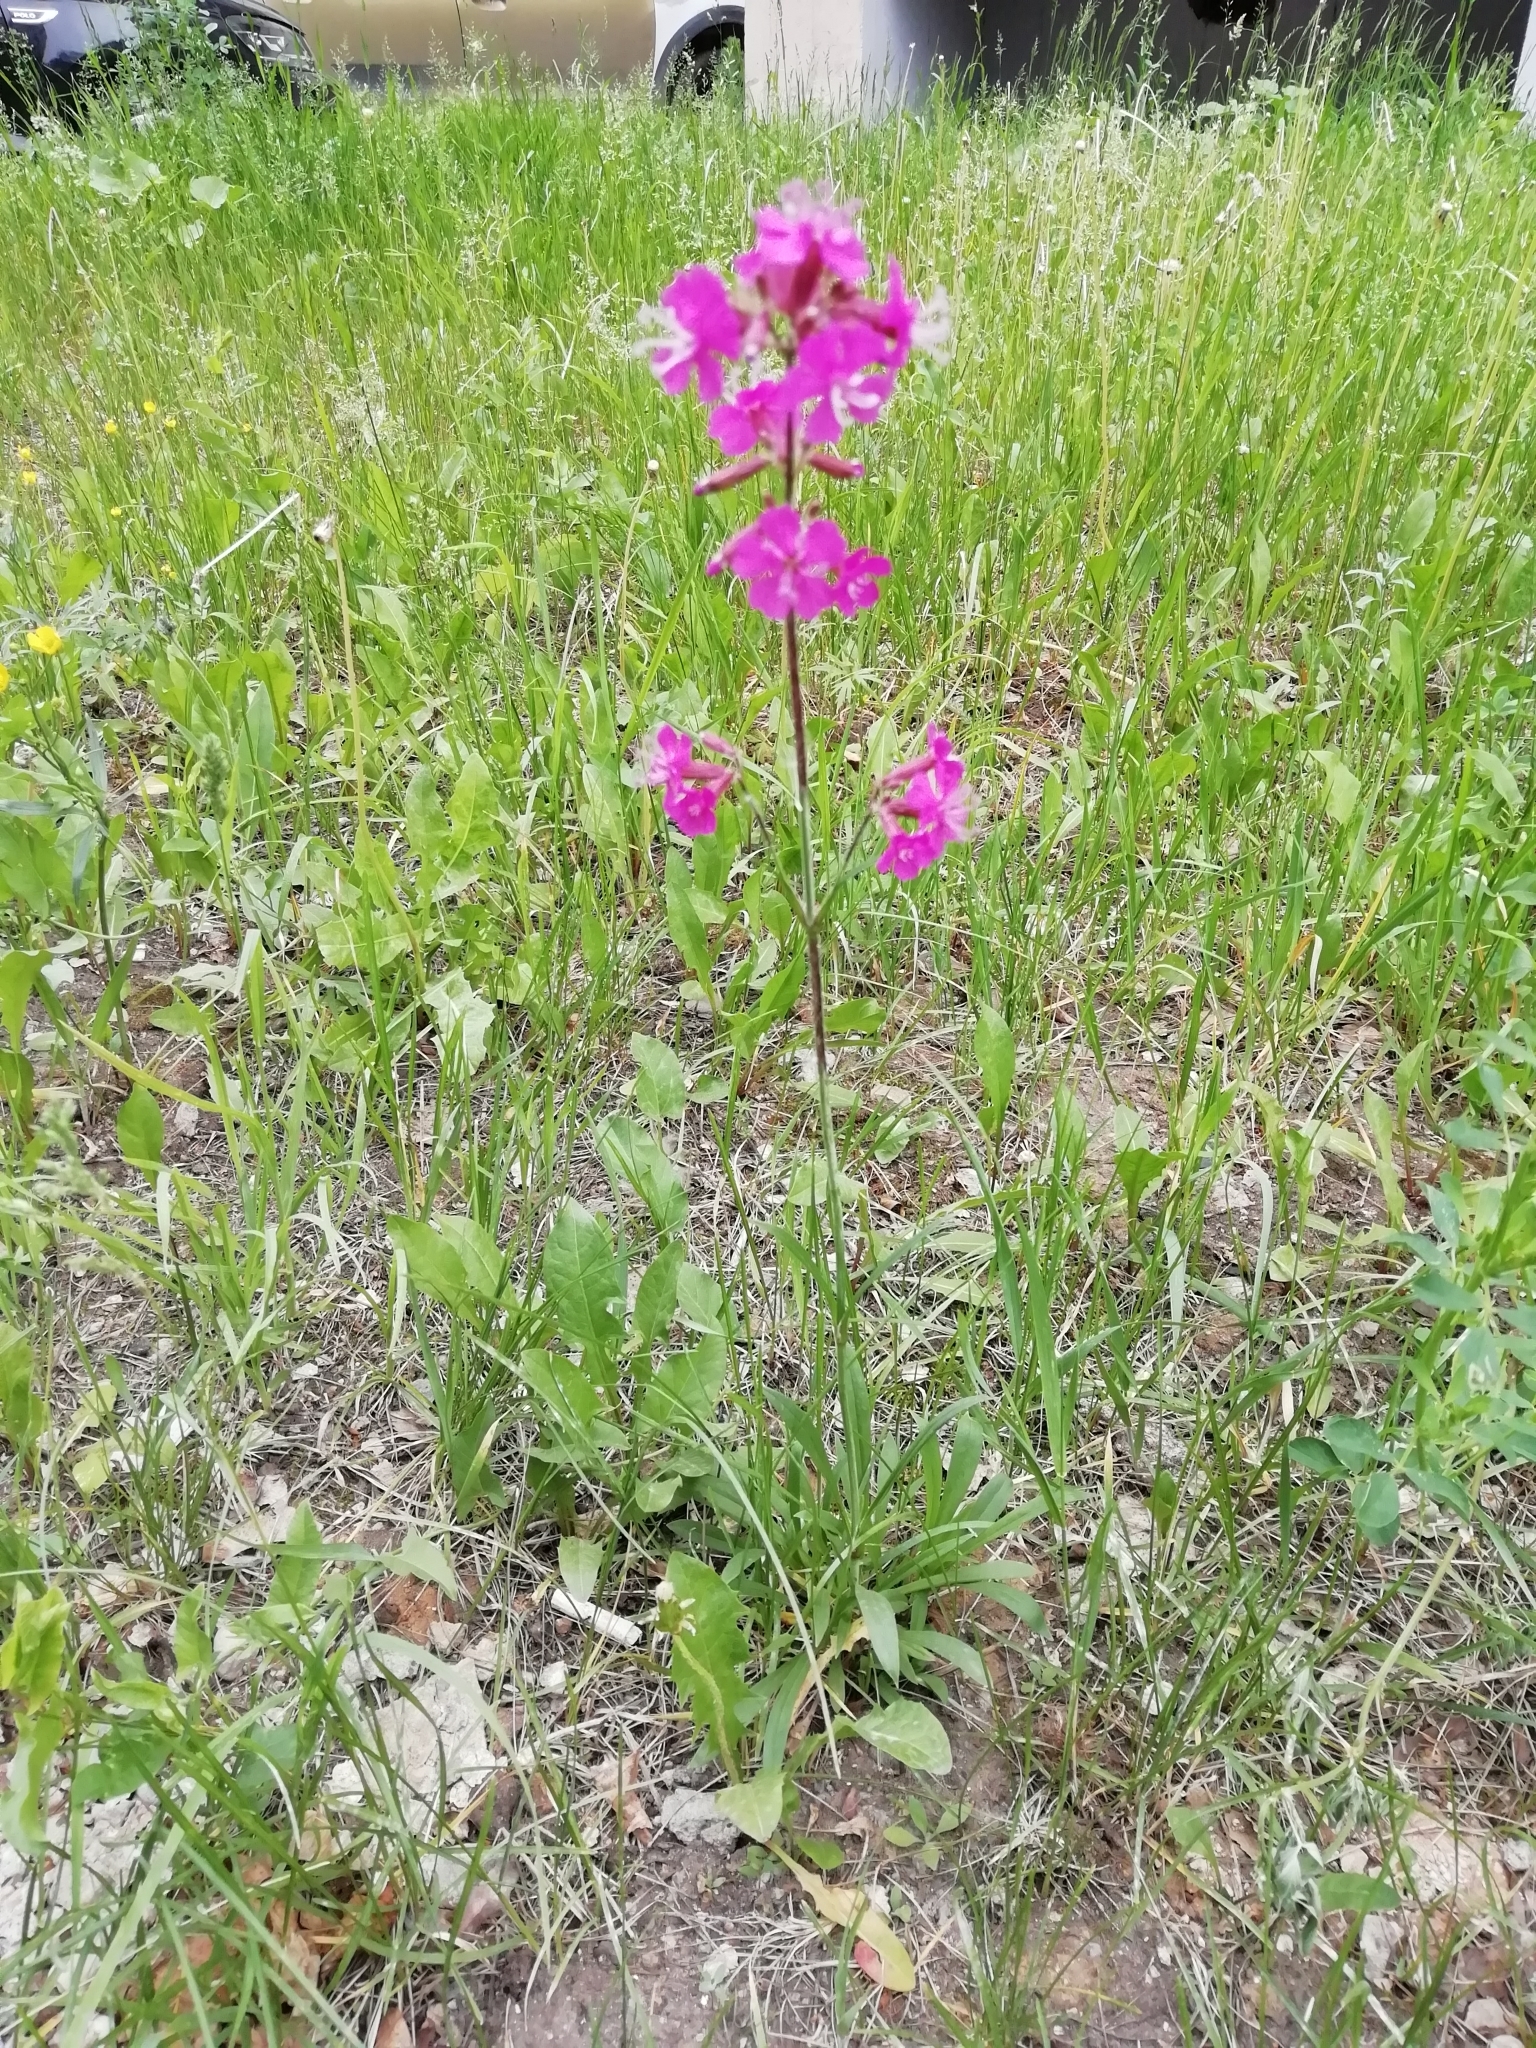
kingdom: Plantae
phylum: Tracheophyta
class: Magnoliopsida
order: Caryophyllales
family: Caryophyllaceae
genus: Viscaria
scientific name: Viscaria vulgaris
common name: Clammy campion
